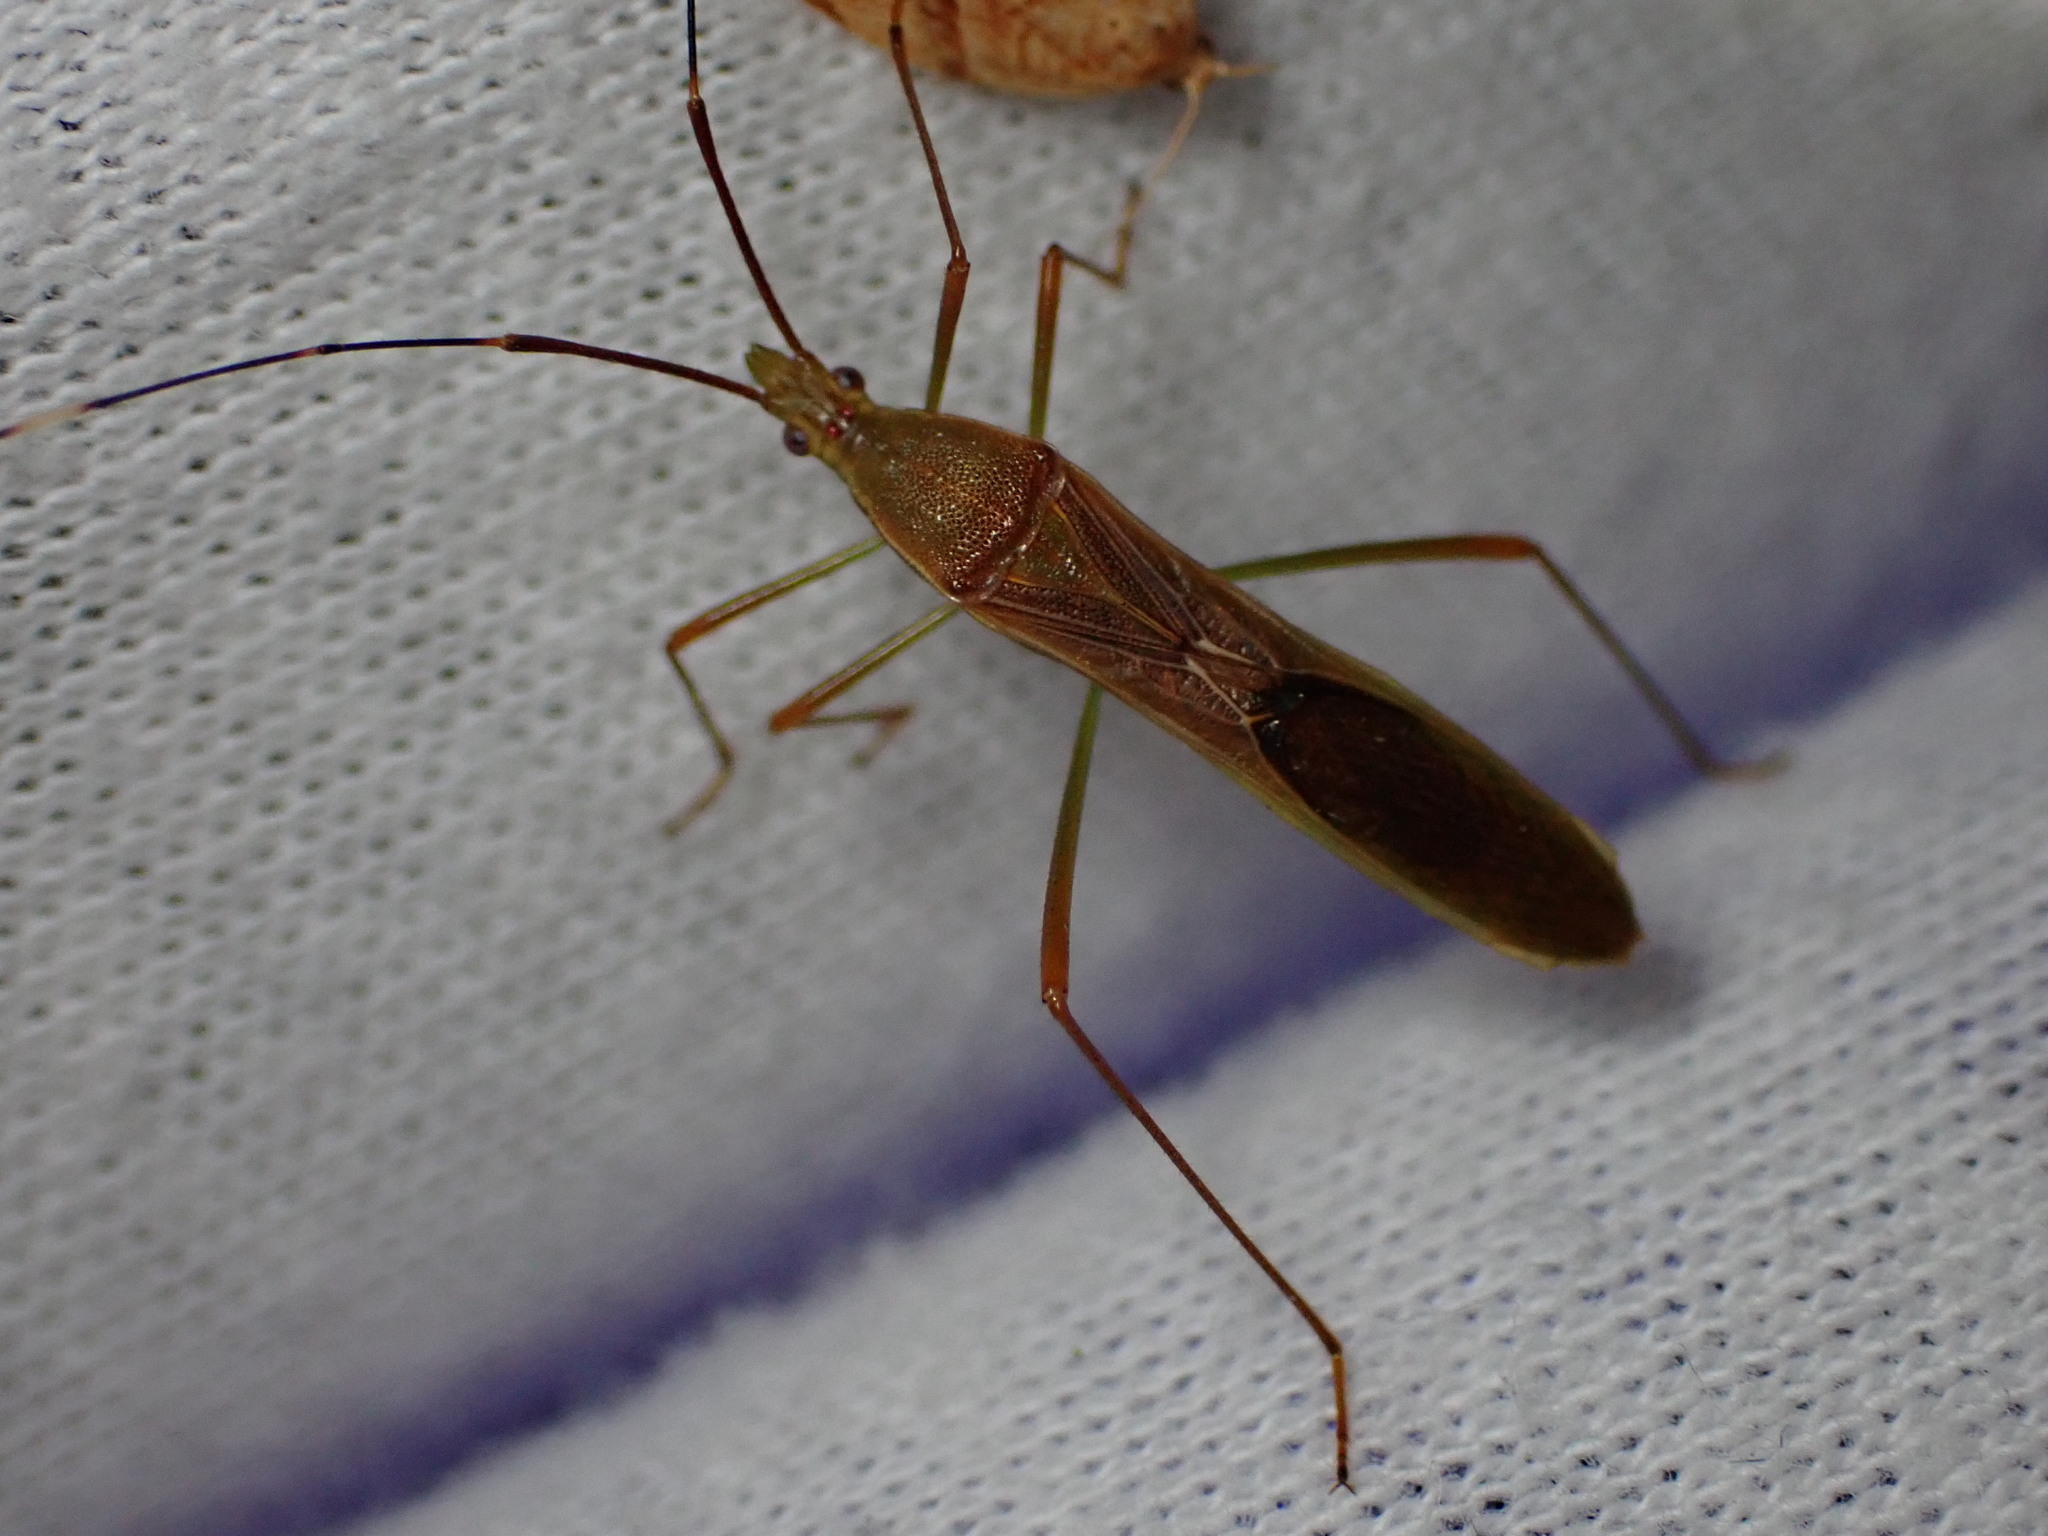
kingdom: Animalia
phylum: Arthropoda
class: Insecta
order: Hemiptera
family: Alydidae
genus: Leptocorisa
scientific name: Leptocorisa oratoria
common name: Rice ear bug
